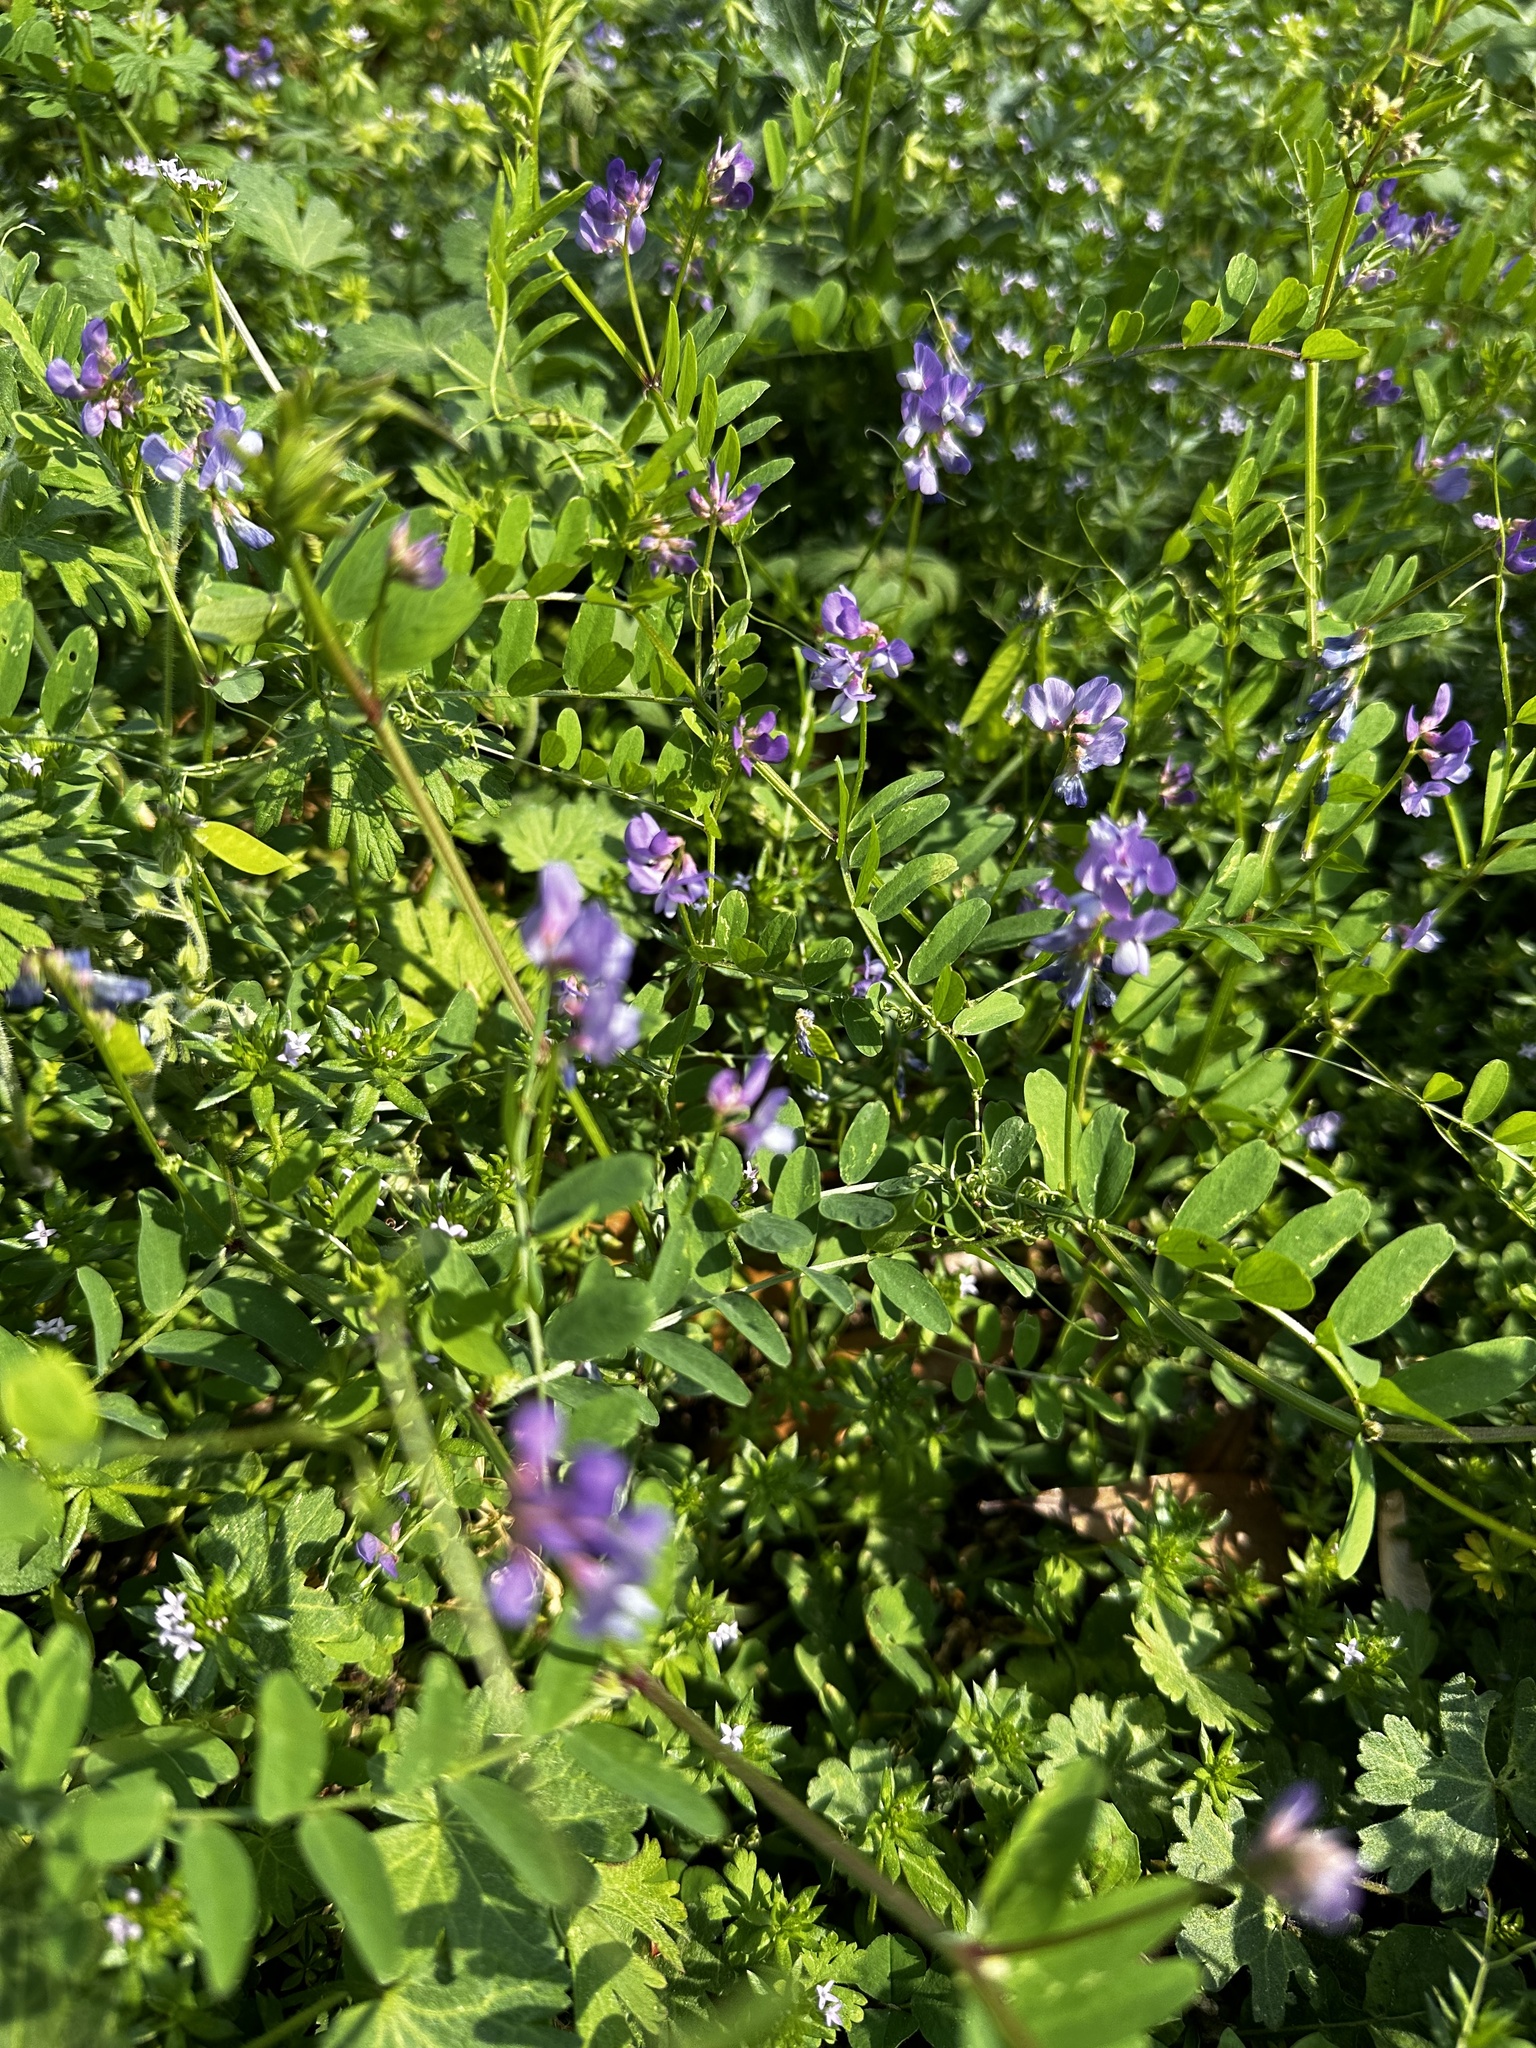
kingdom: Plantae
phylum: Tracheophyta
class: Magnoliopsida
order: Fabales
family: Fabaceae
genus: Vicia
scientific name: Vicia ludoviciana
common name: Louisiana vetch
